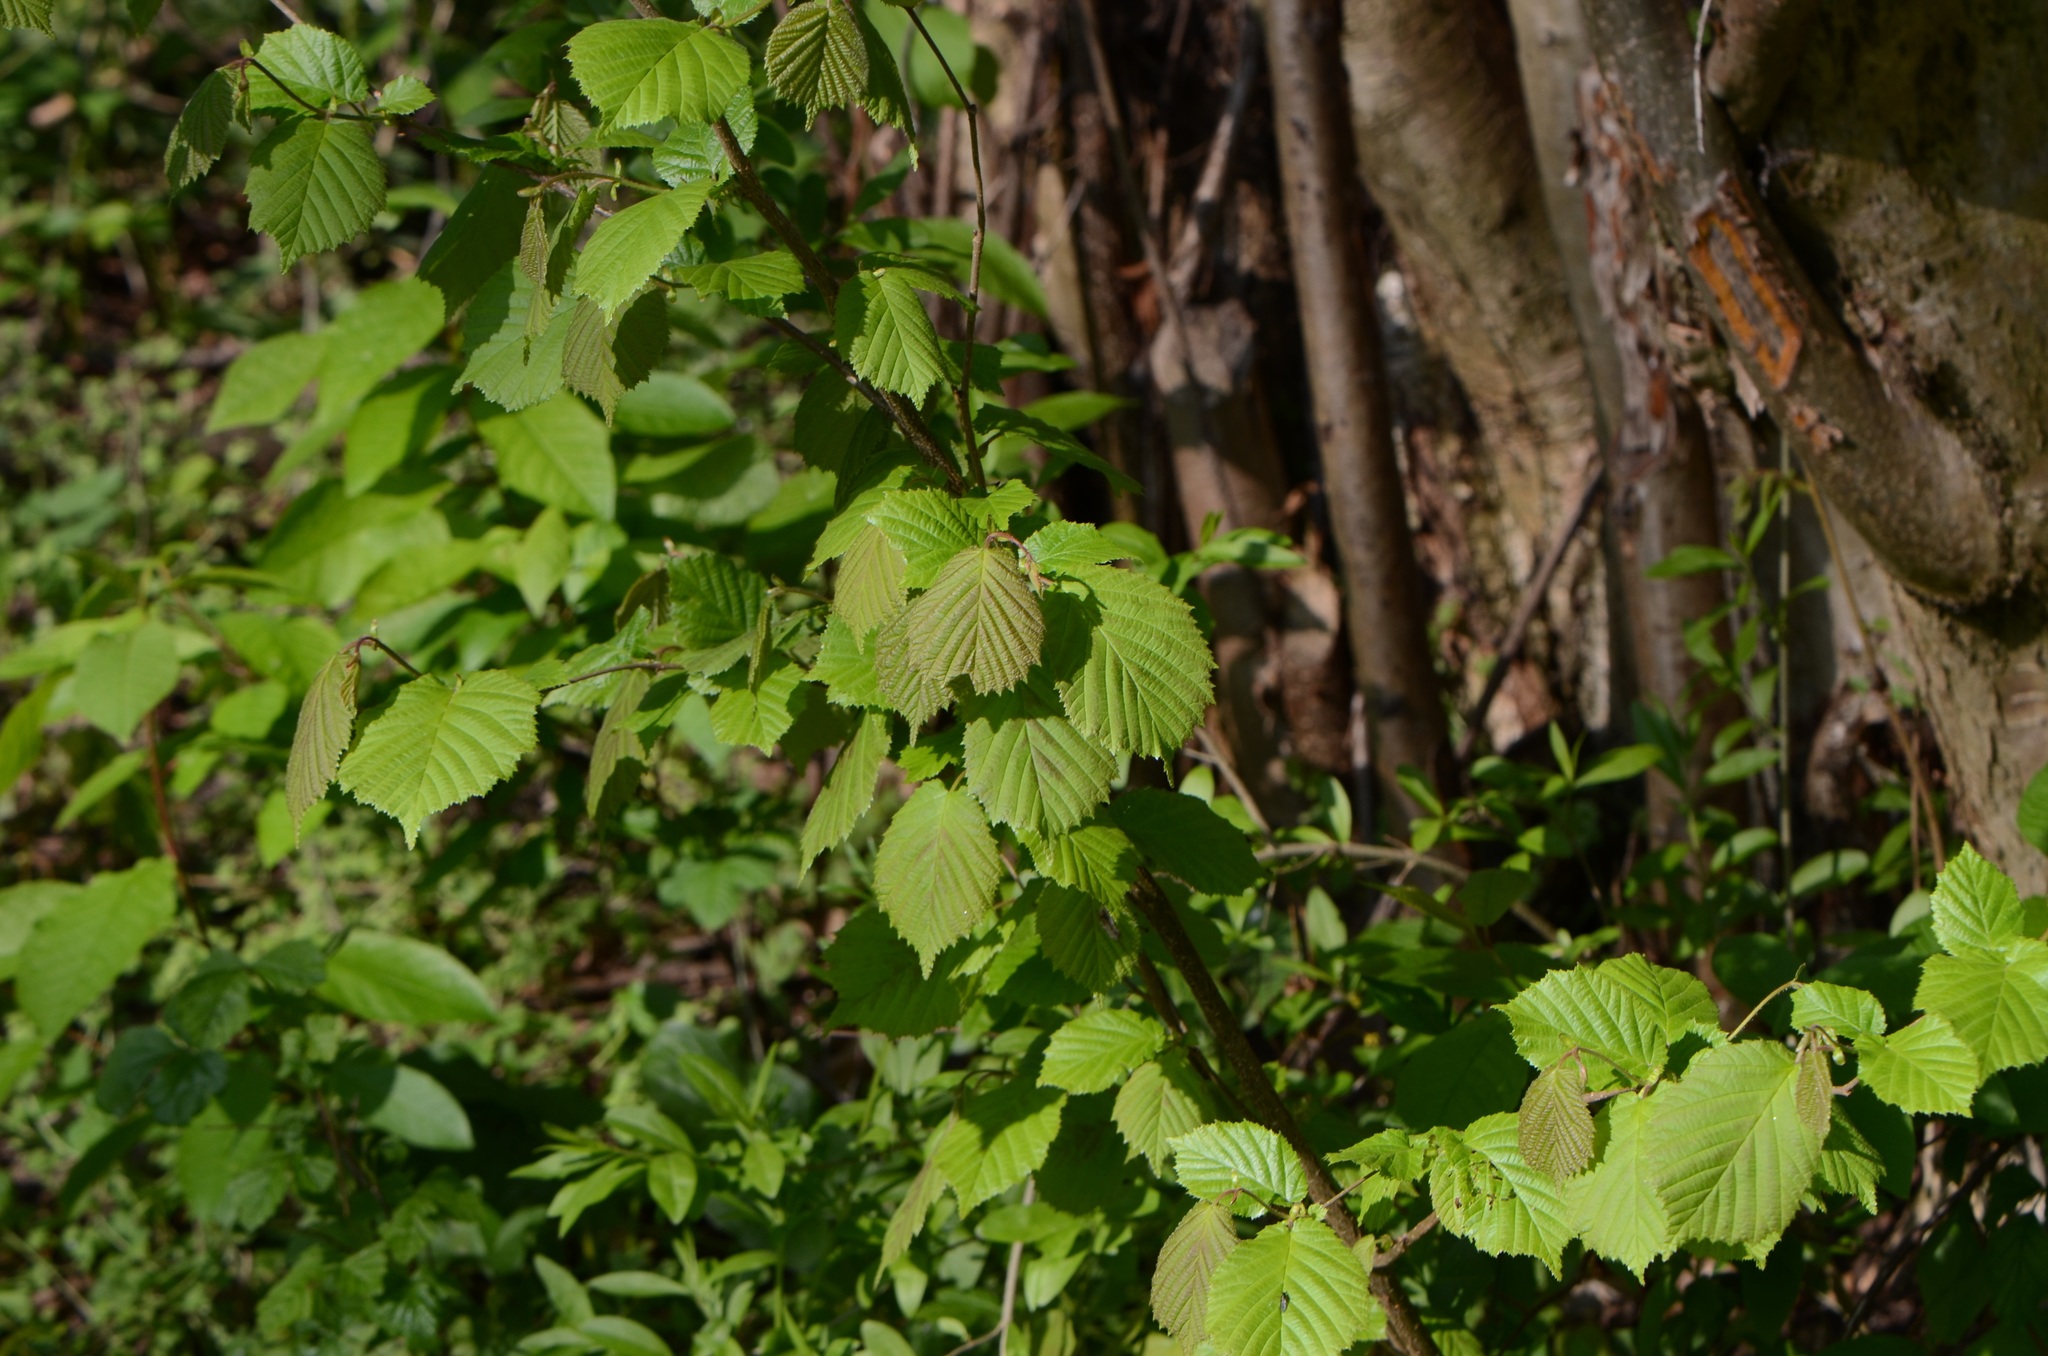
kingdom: Plantae
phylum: Tracheophyta
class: Magnoliopsida
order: Fagales
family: Betulaceae
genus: Corylus
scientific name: Corylus avellana
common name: European hazel
